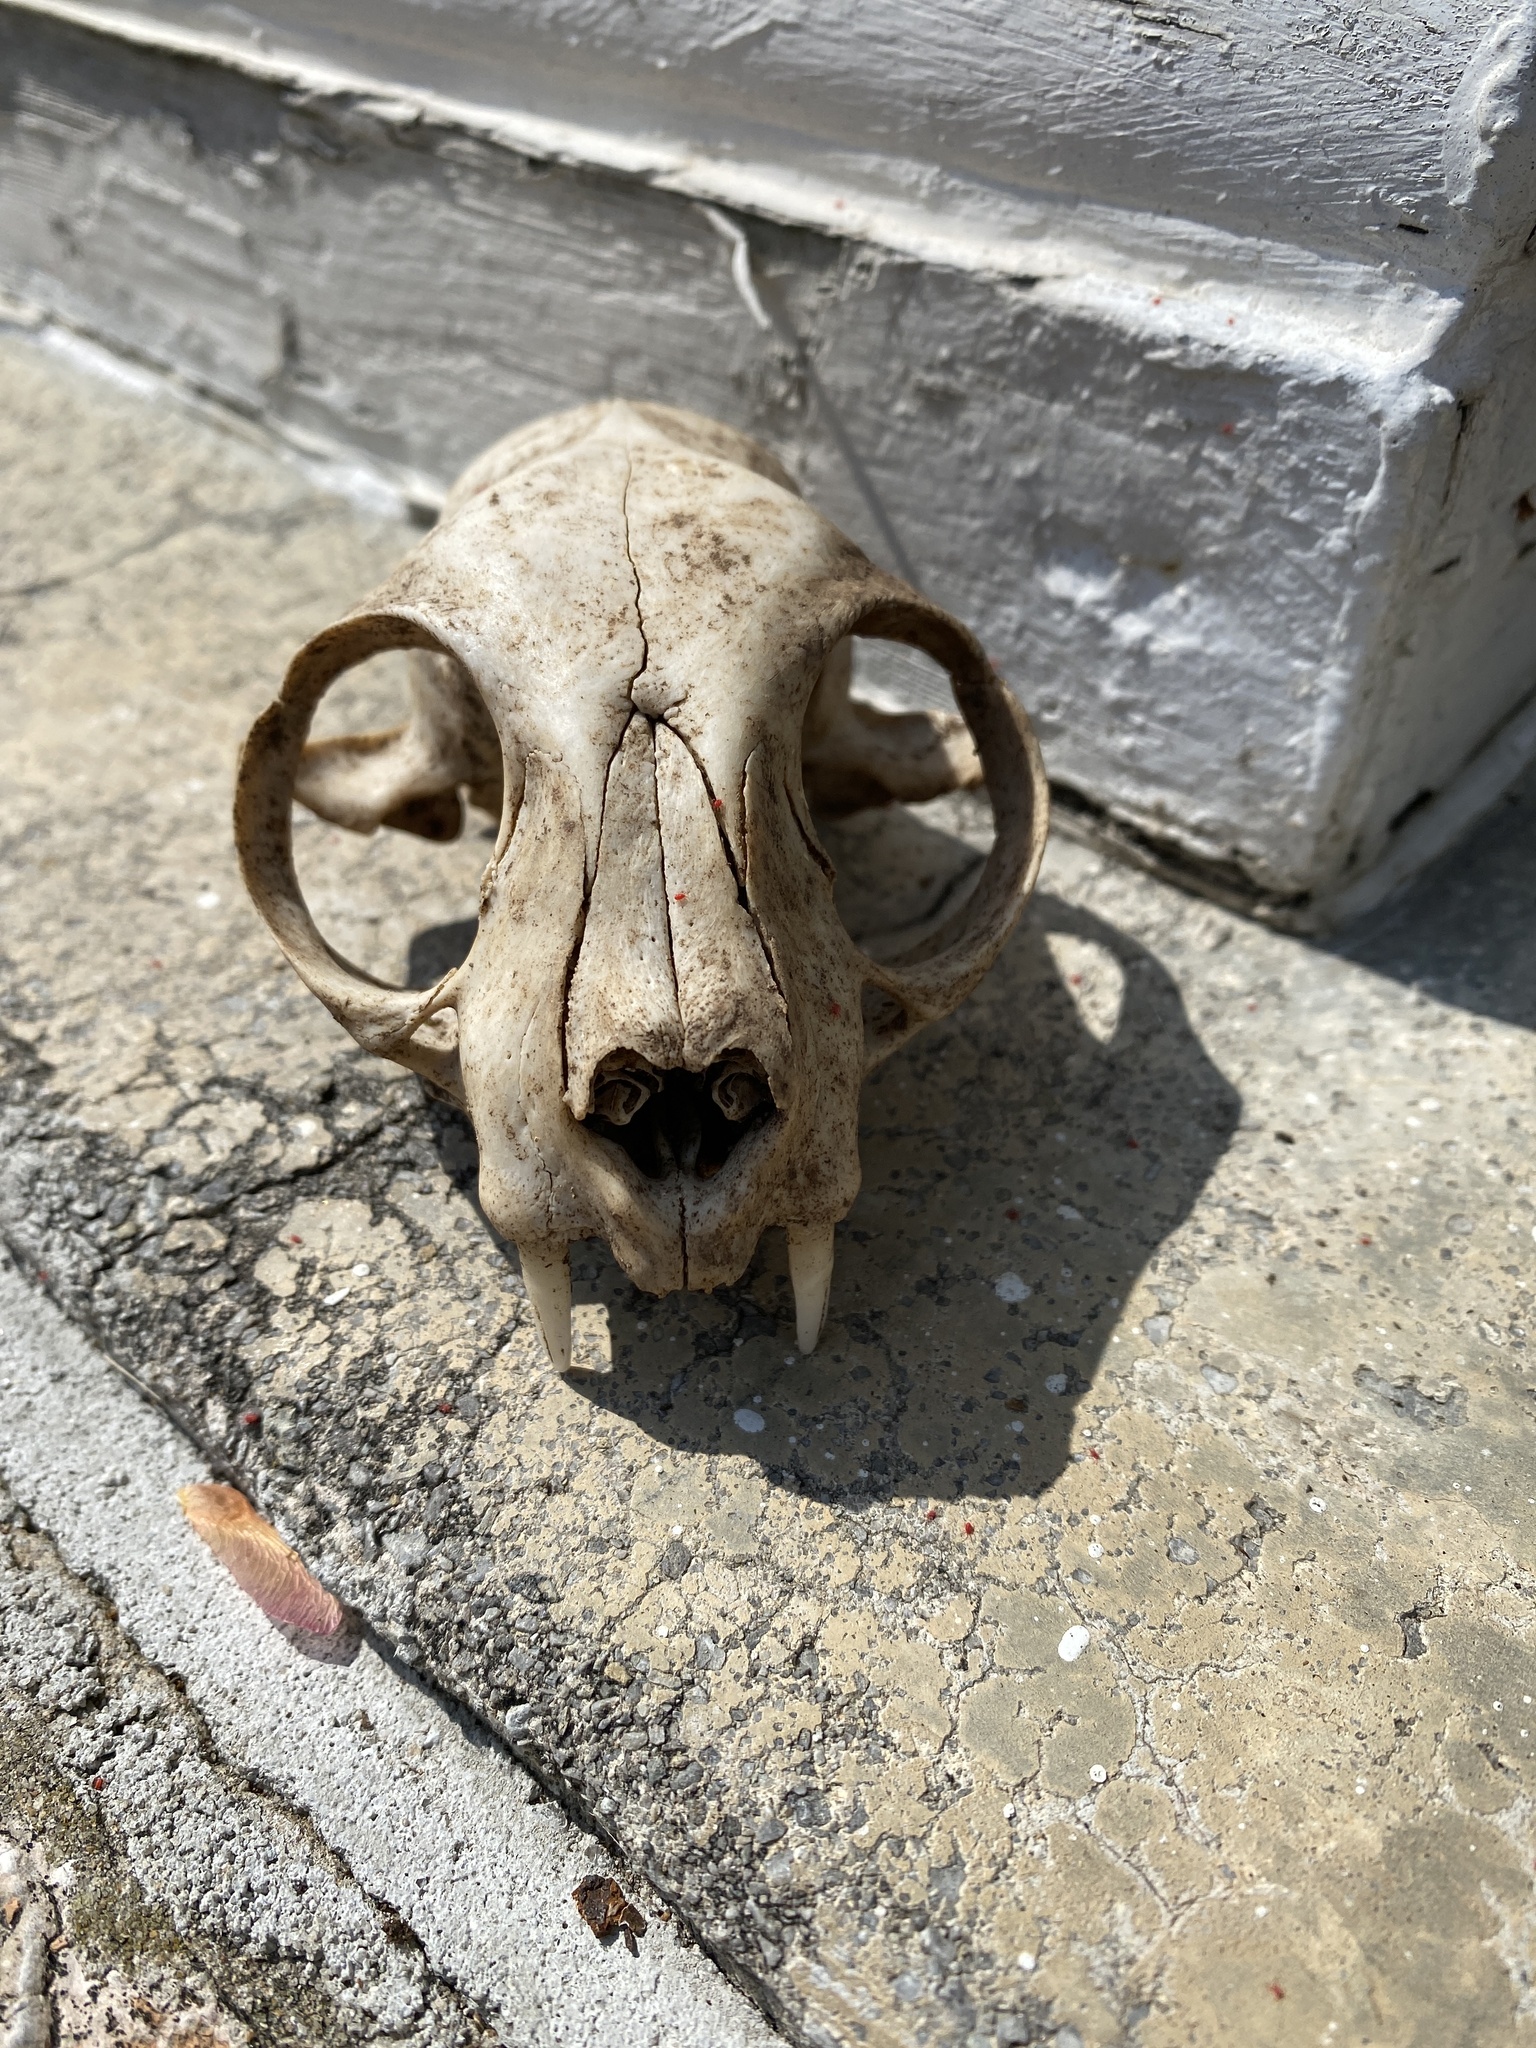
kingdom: Animalia
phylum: Chordata
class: Mammalia
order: Carnivora
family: Felidae
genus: Felis
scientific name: Felis catus
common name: Domestic cat
